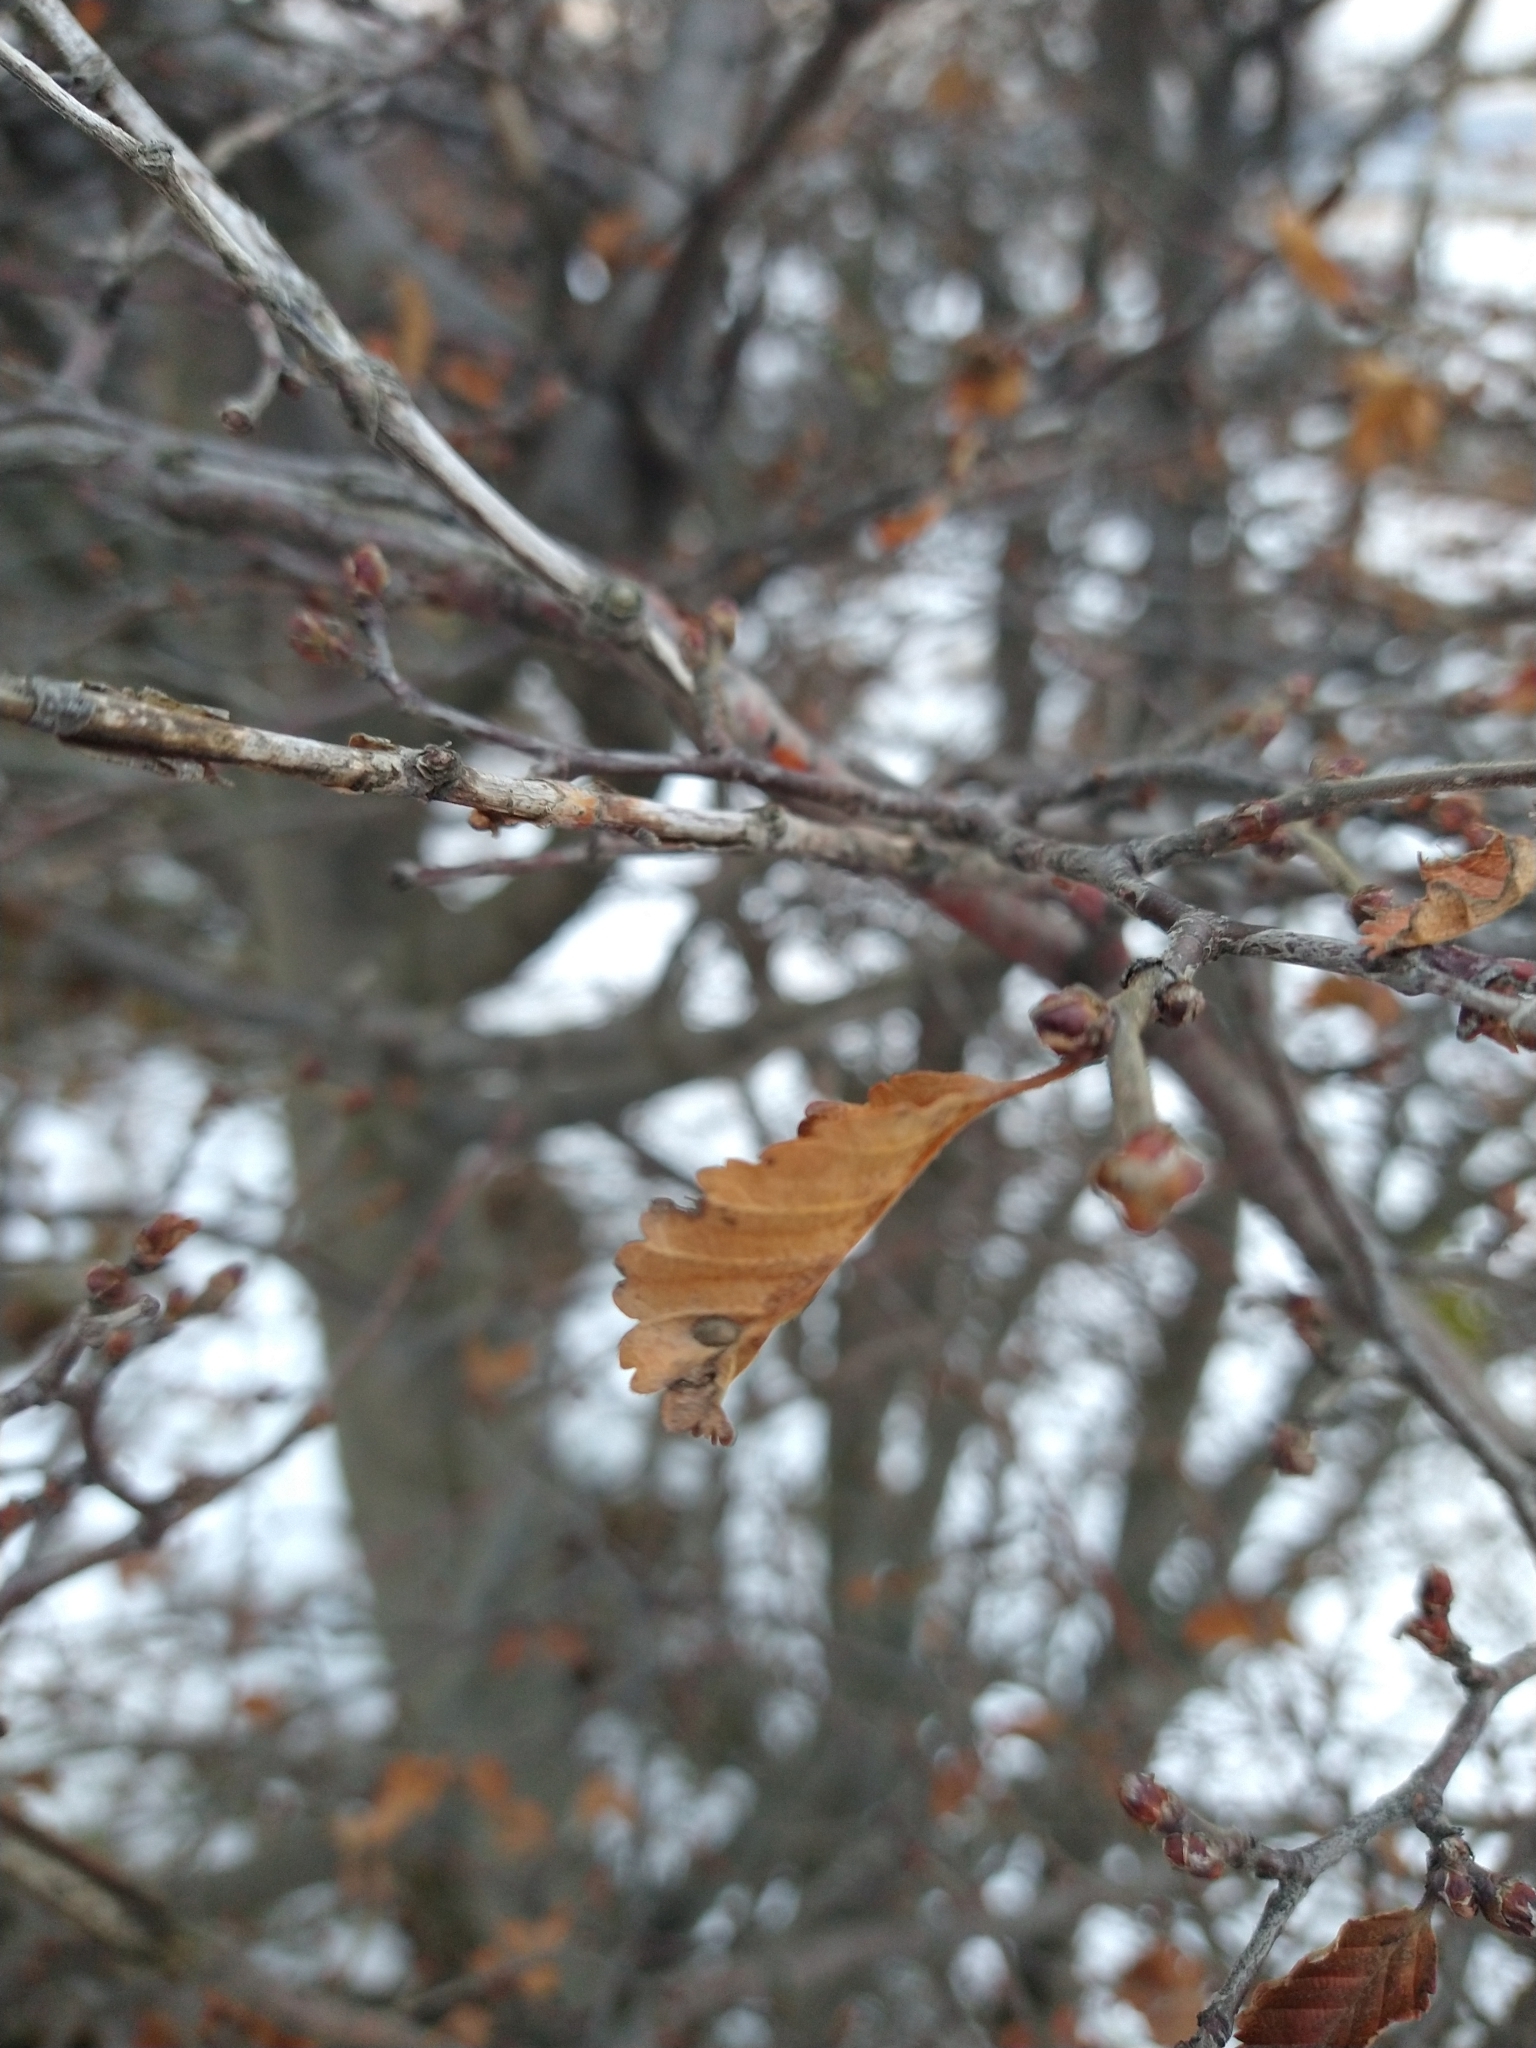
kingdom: Plantae
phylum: Tracheophyta
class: Magnoliopsida
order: Fagales
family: Nothofagaceae
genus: Nothofagus
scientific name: Nothofagus pumilio
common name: Lenga beech
